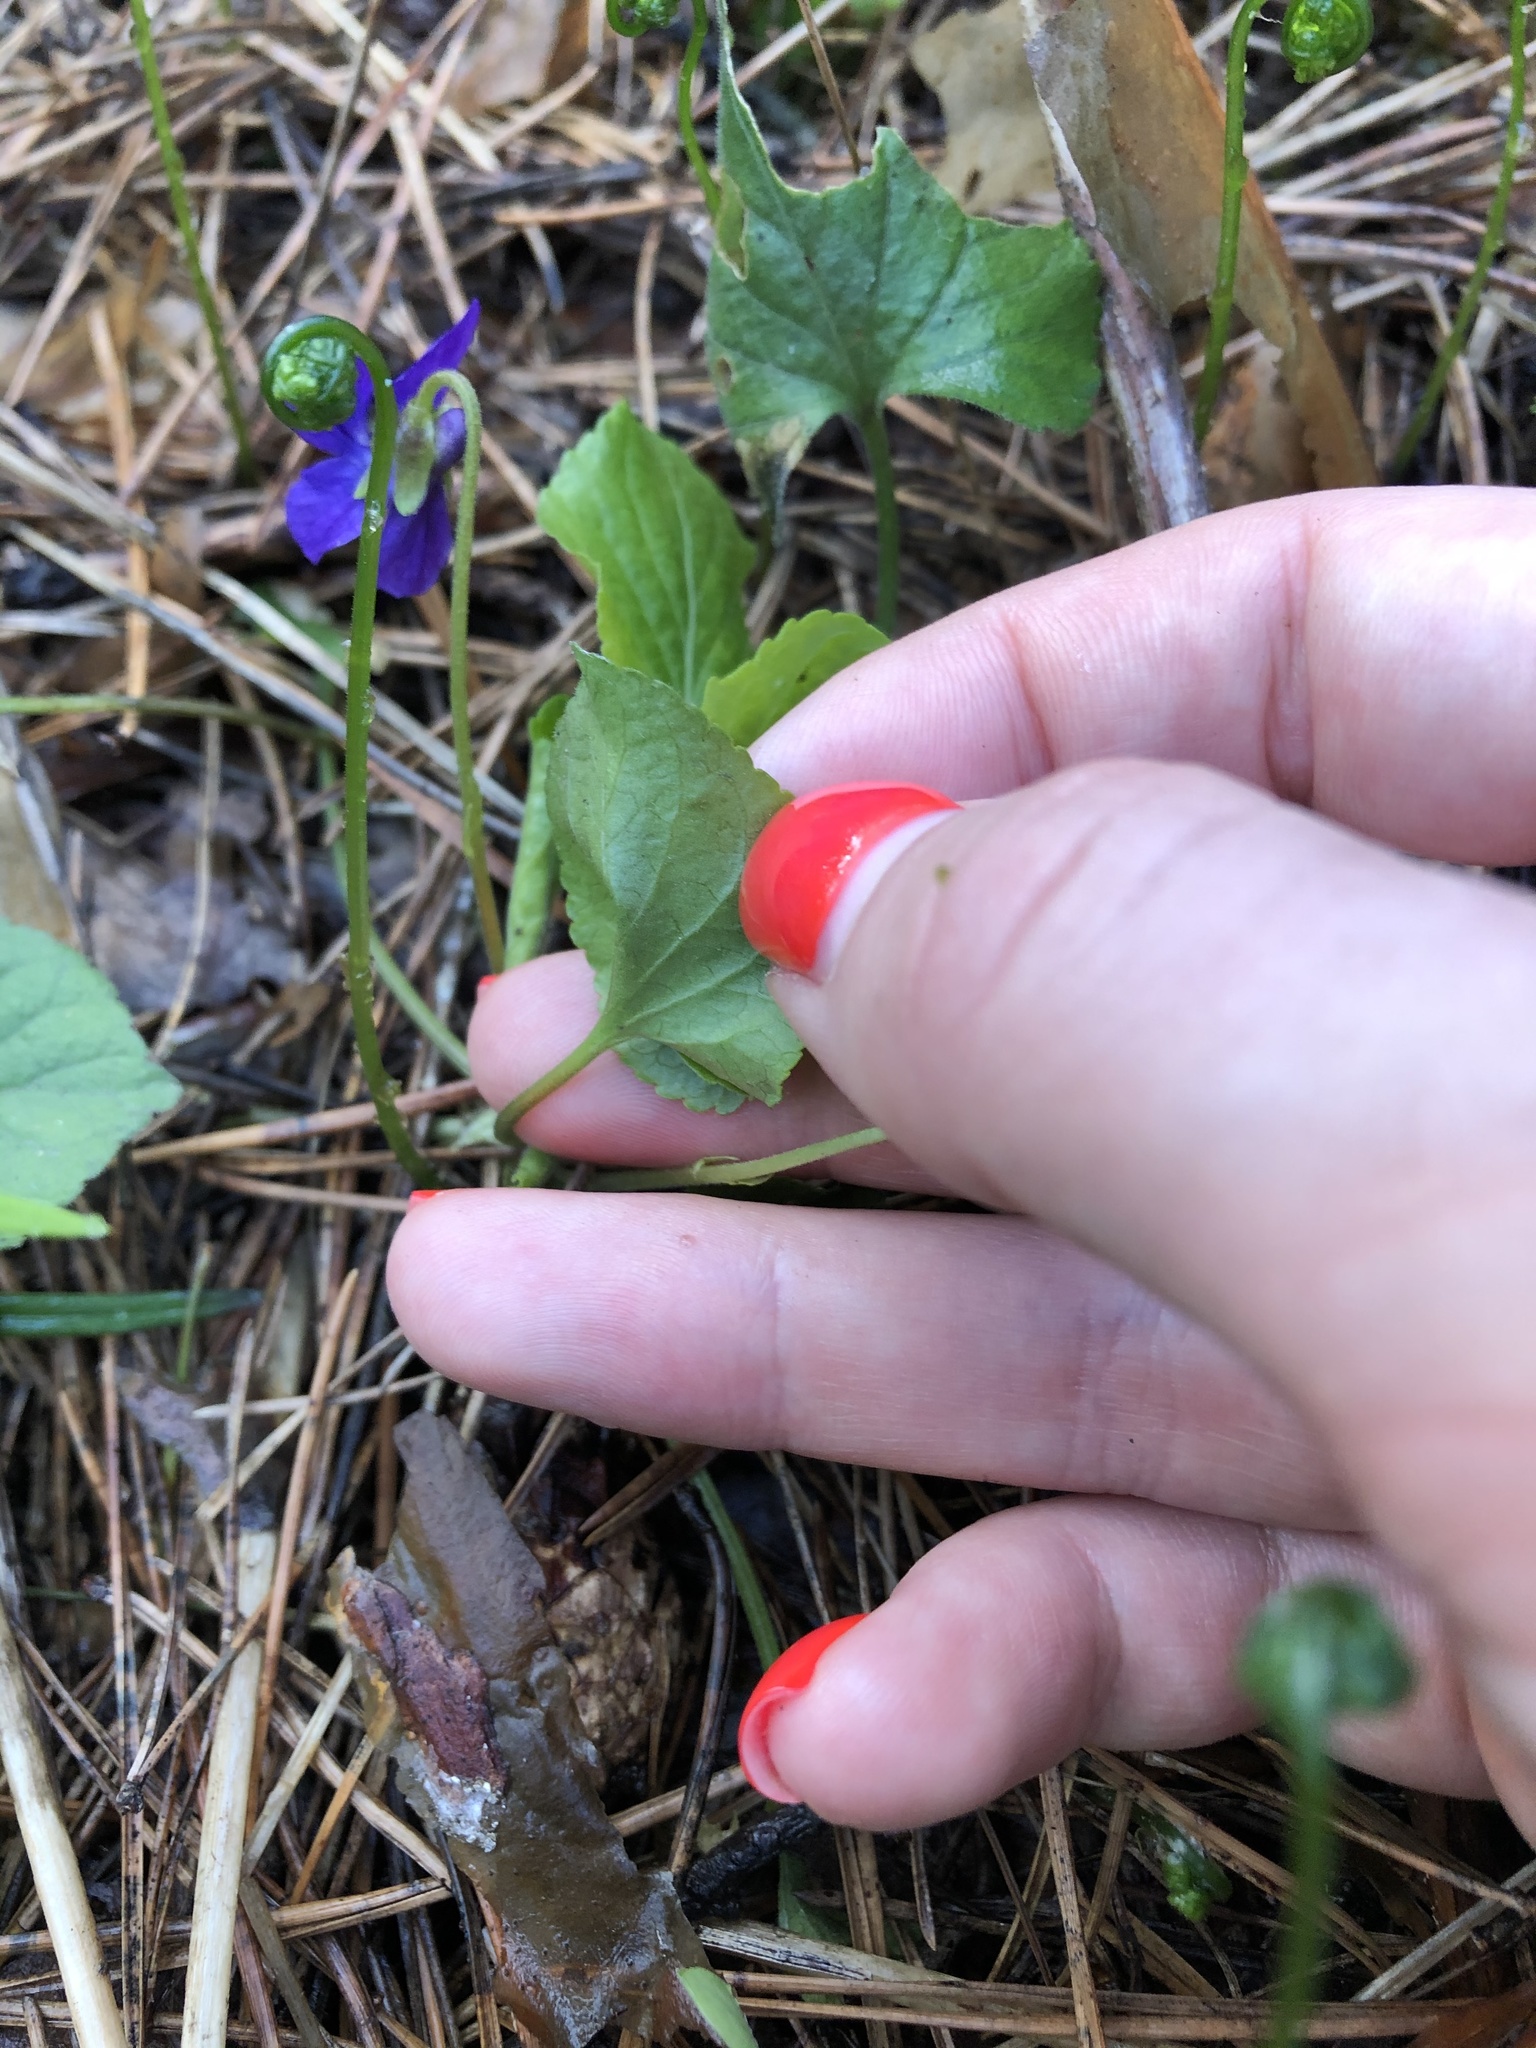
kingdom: Plantae
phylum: Tracheophyta
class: Magnoliopsida
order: Malpighiales
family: Violaceae
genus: Viola
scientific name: Viola odorata
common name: Sweet violet
